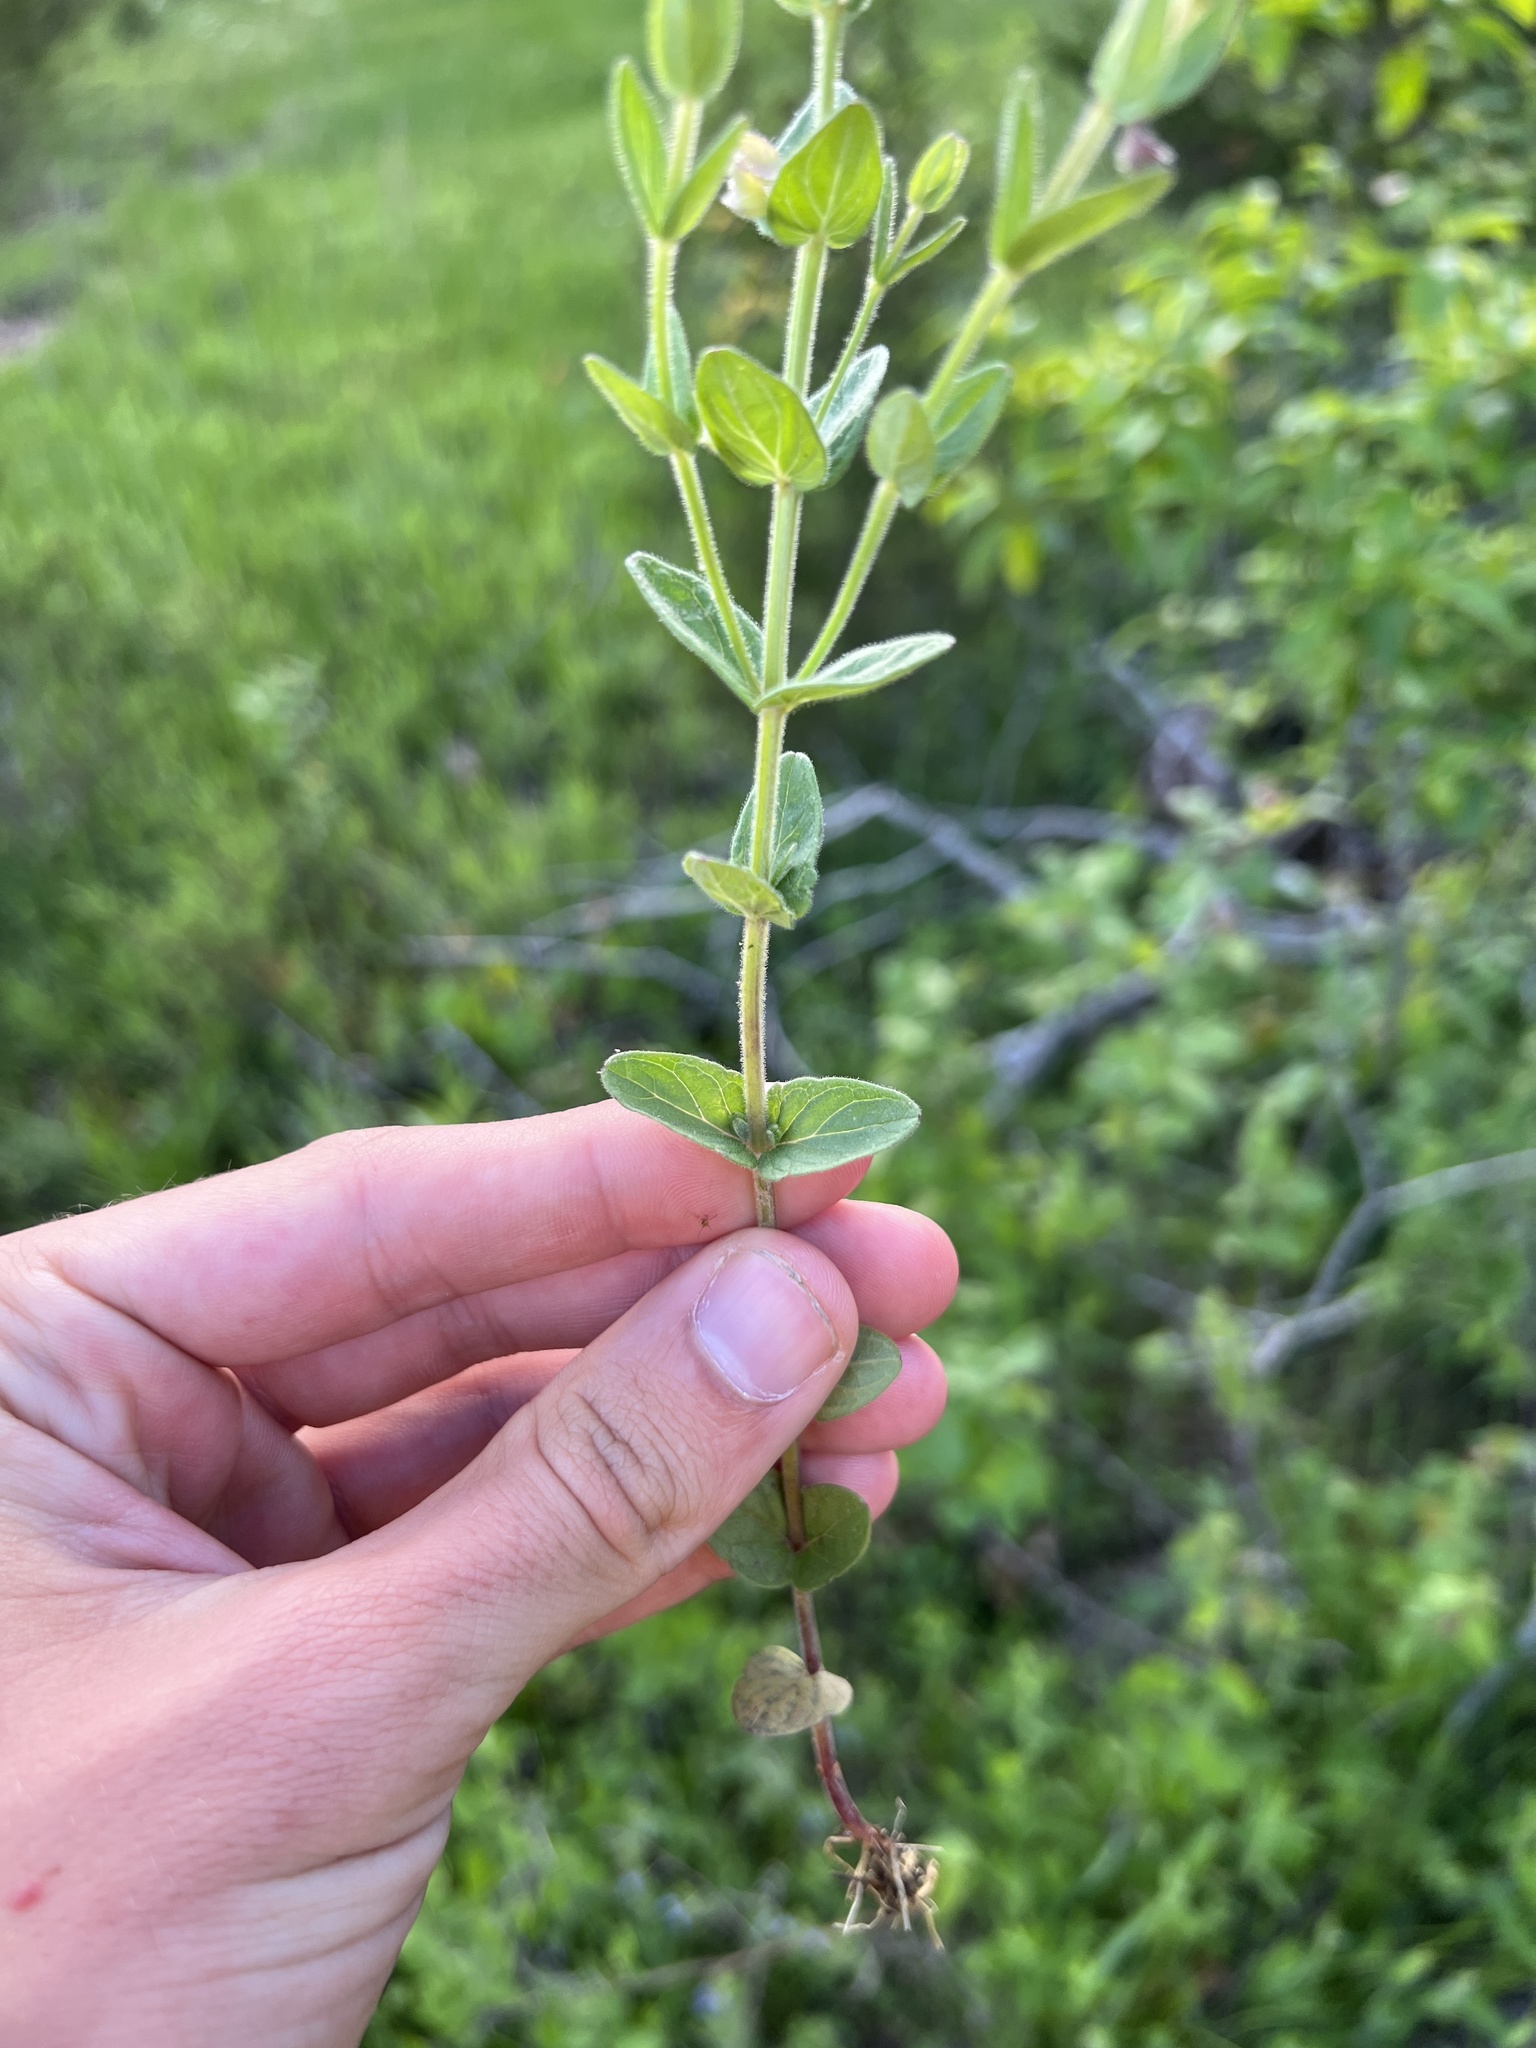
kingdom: Plantae
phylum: Tracheophyta
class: Magnoliopsida
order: Lamiales
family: Lamiaceae
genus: Scutellaria
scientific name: Scutellaria parvula
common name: Little scullcap
